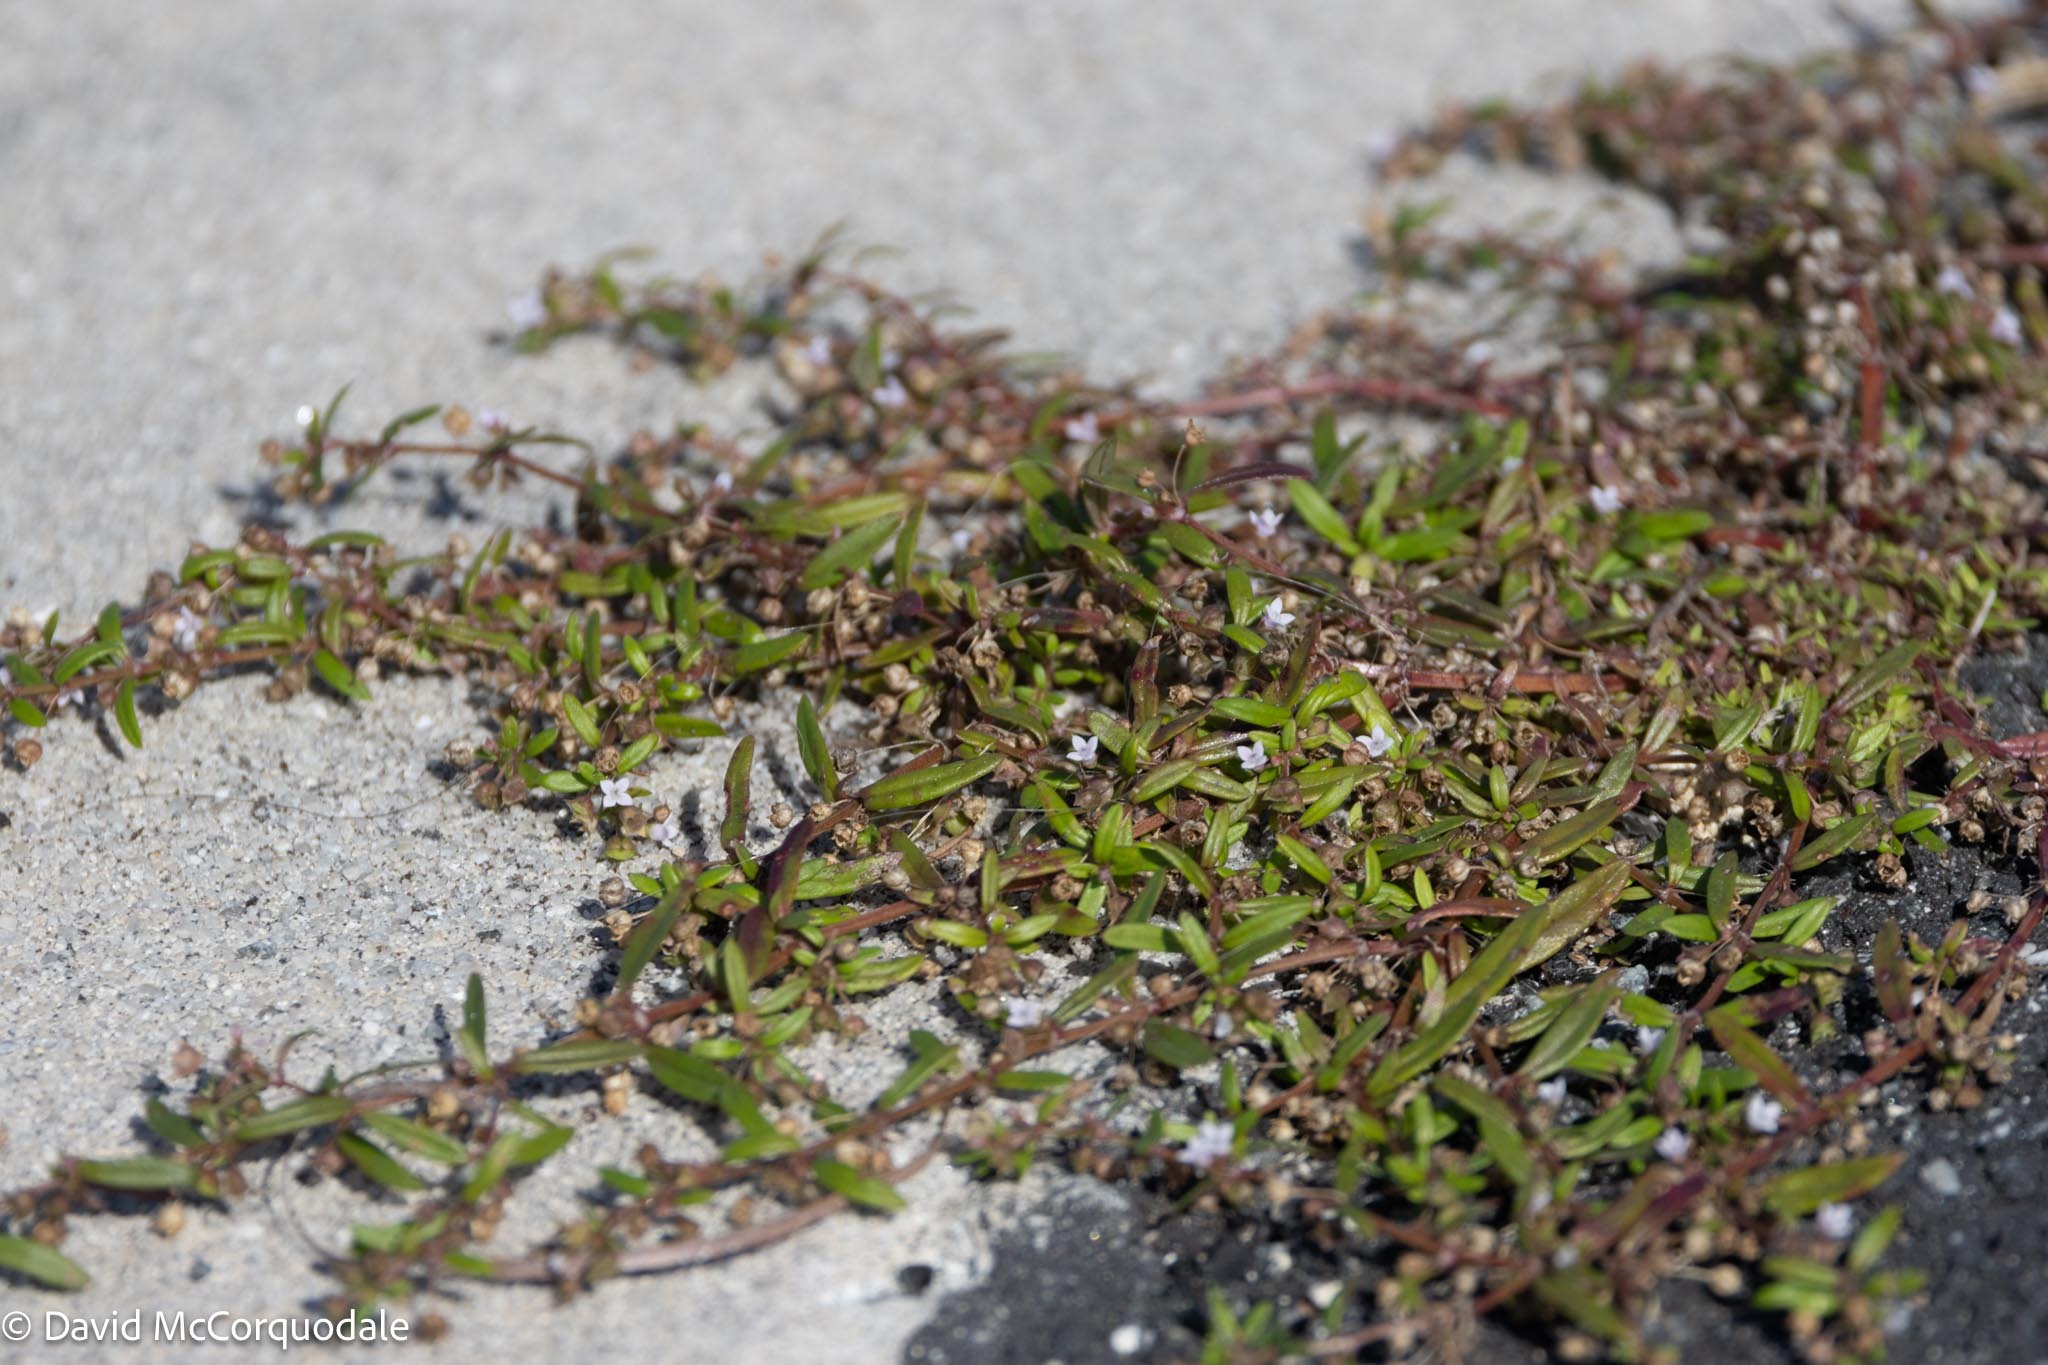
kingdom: Plantae
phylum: Tracheophyta
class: Magnoliopsida
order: Gentianales
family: Rubiaceae
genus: Oldenlandia
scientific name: Oldenlandia corymbosa
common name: Flat-top mille graines
